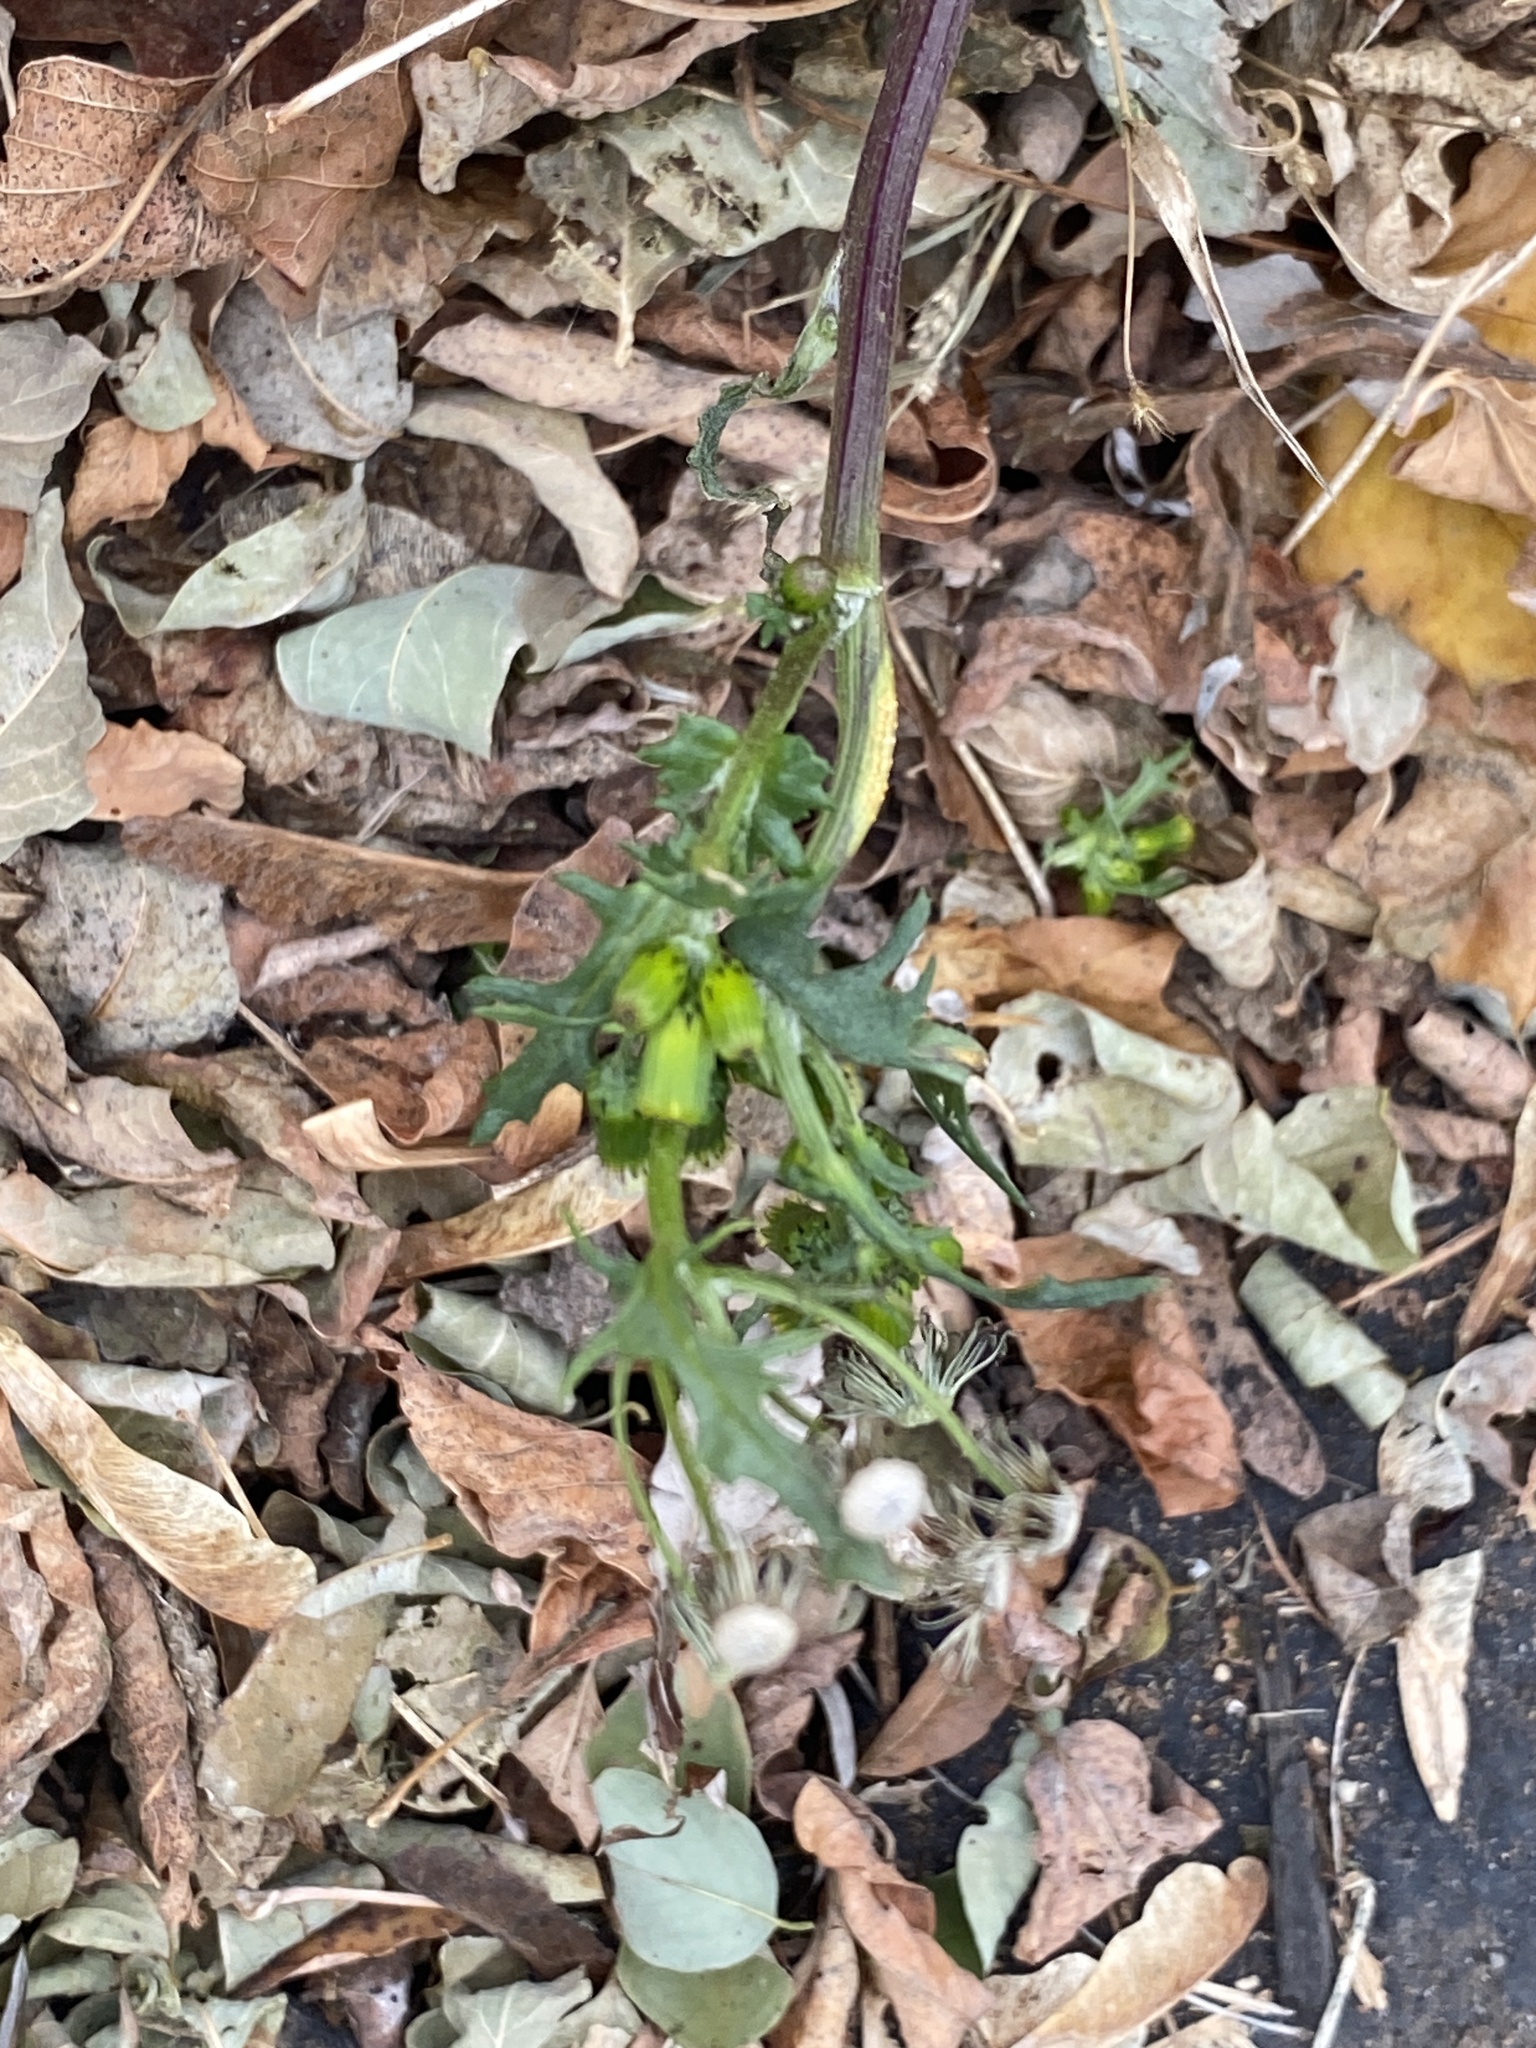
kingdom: Plantae
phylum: Tracheophyta
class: Magnoliopsida
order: Asterales
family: Asteraceae
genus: Senecio
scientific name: Senecio vulgaris
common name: Old-man-in-the-spring
